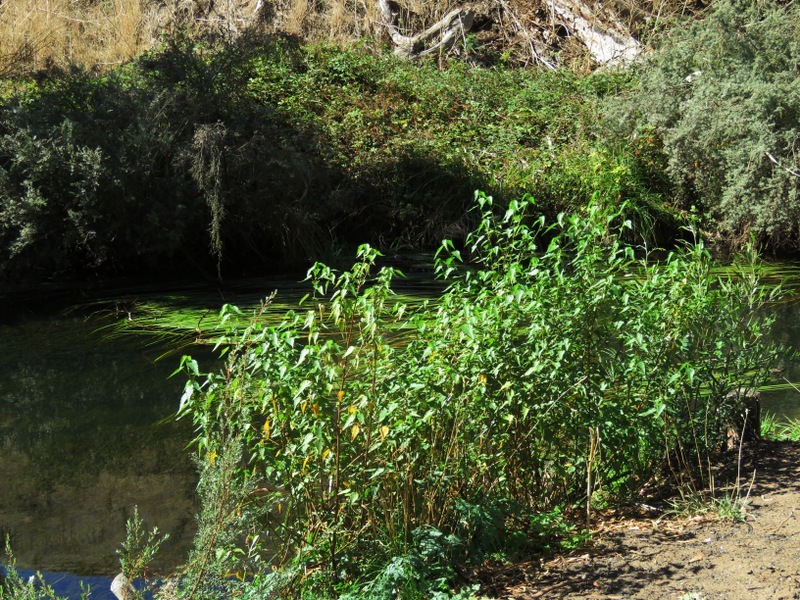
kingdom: Plantae
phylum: Tracheophyta
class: Magnoliopsida
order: Malvales
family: Malvaceae
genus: Gynatrix
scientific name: Gynatrix pulchella
